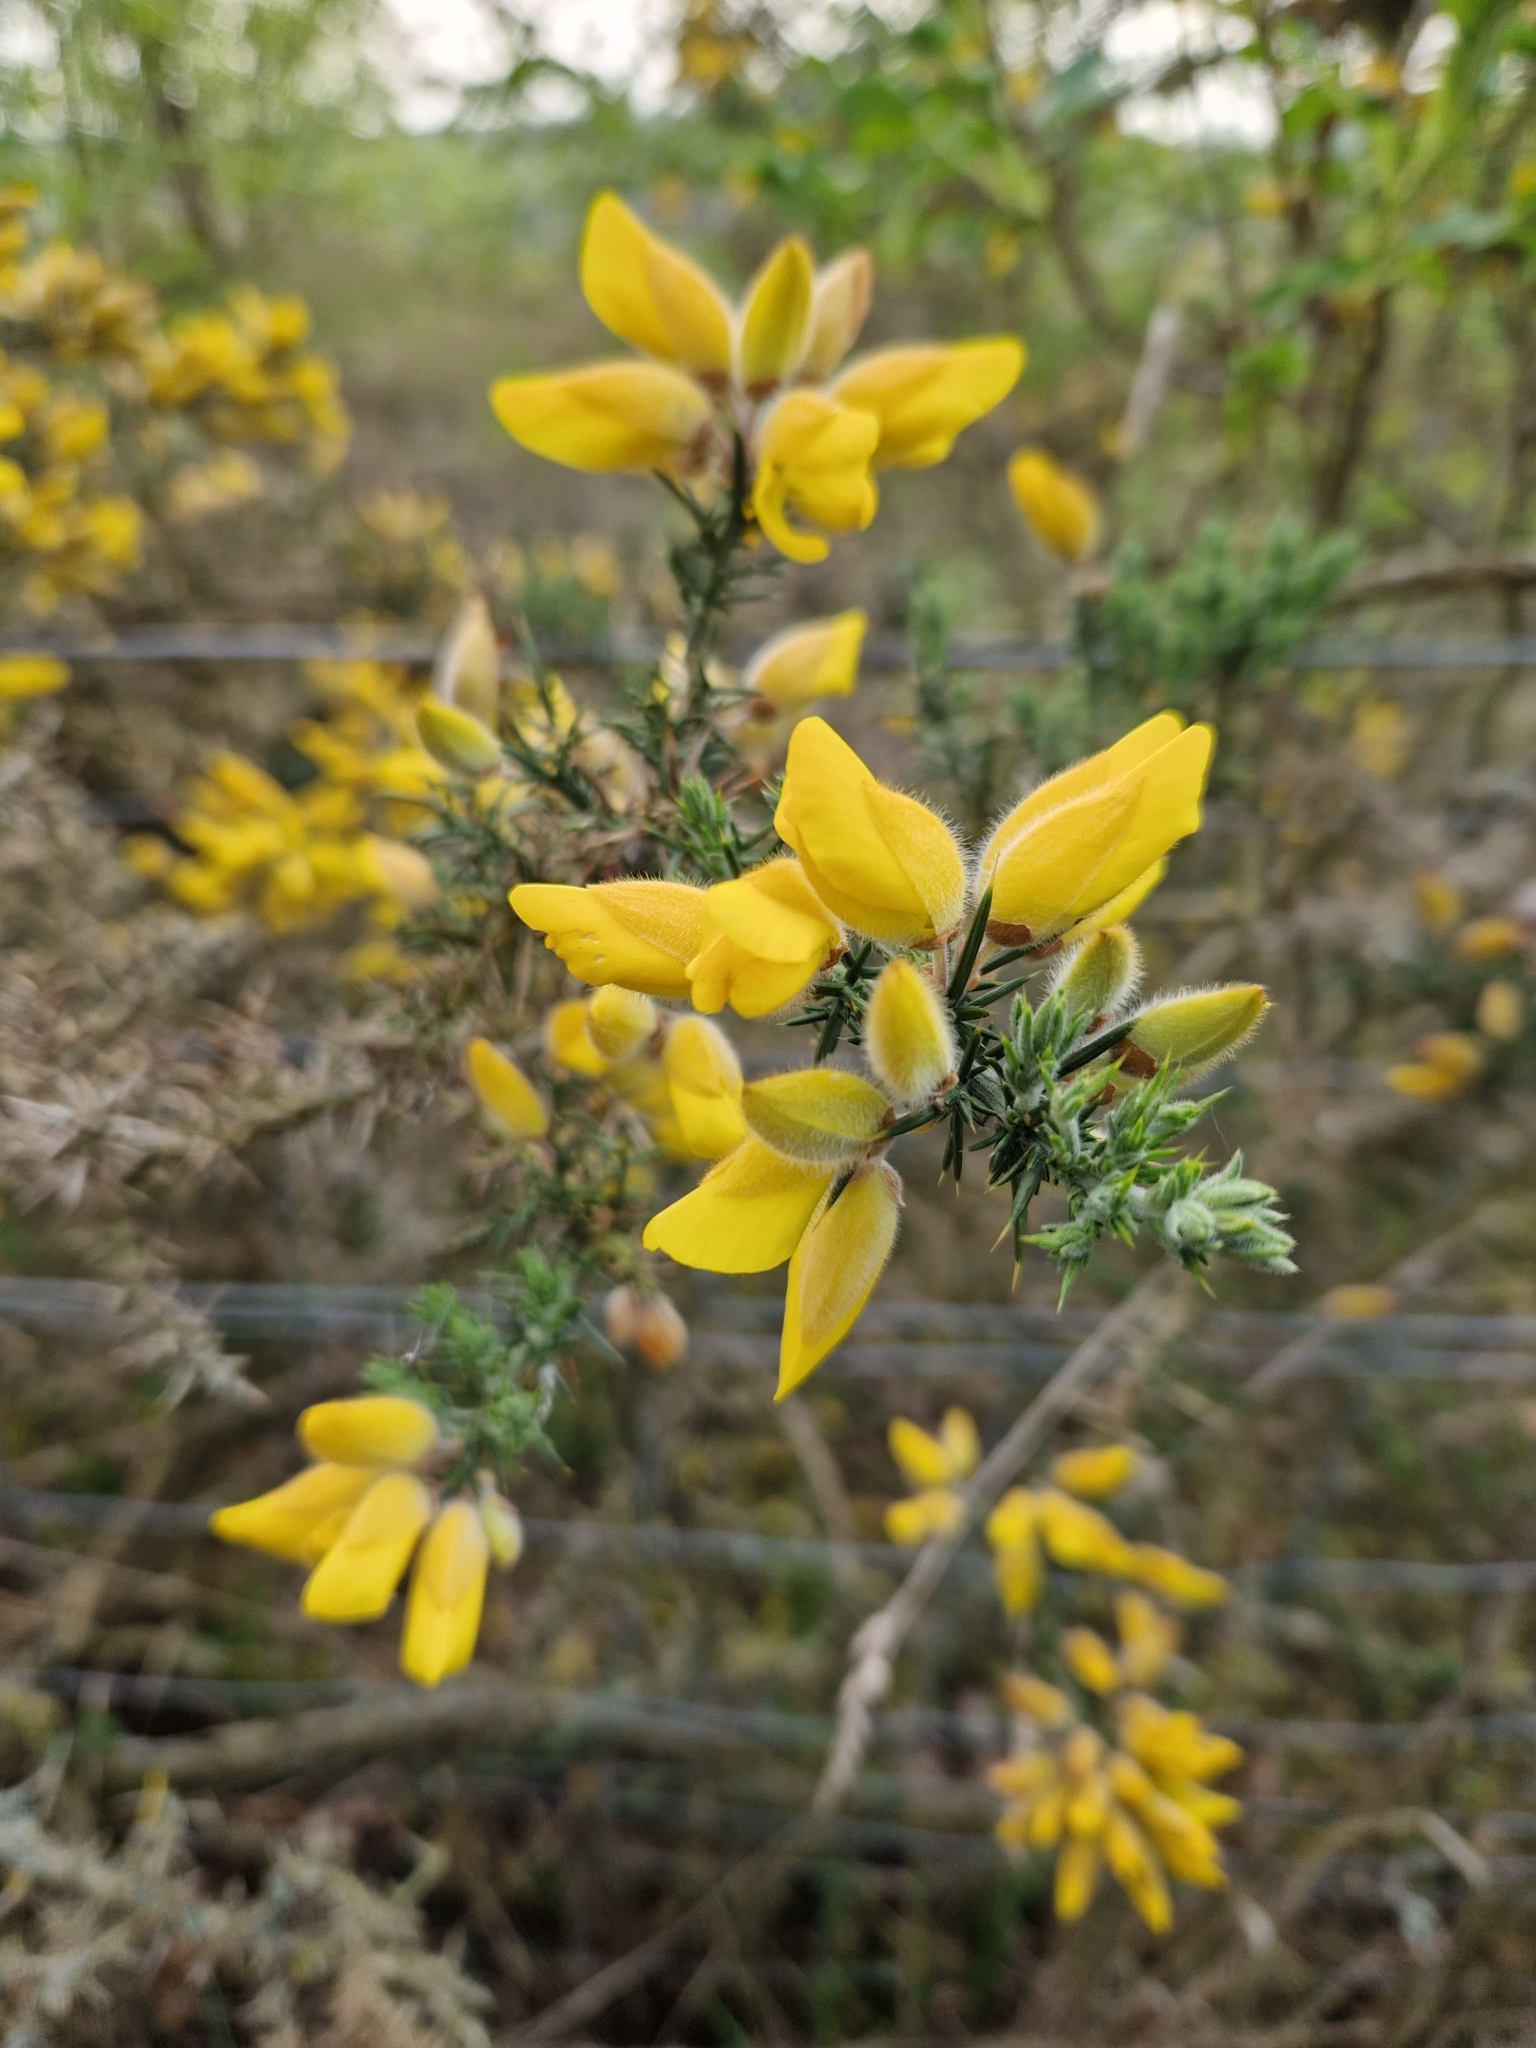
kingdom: Plantae
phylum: Tracheophyta
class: Magnoliopsida
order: Fabales
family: Fabaceae
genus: Ulex
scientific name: Ulex europaeus
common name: Common gorse
